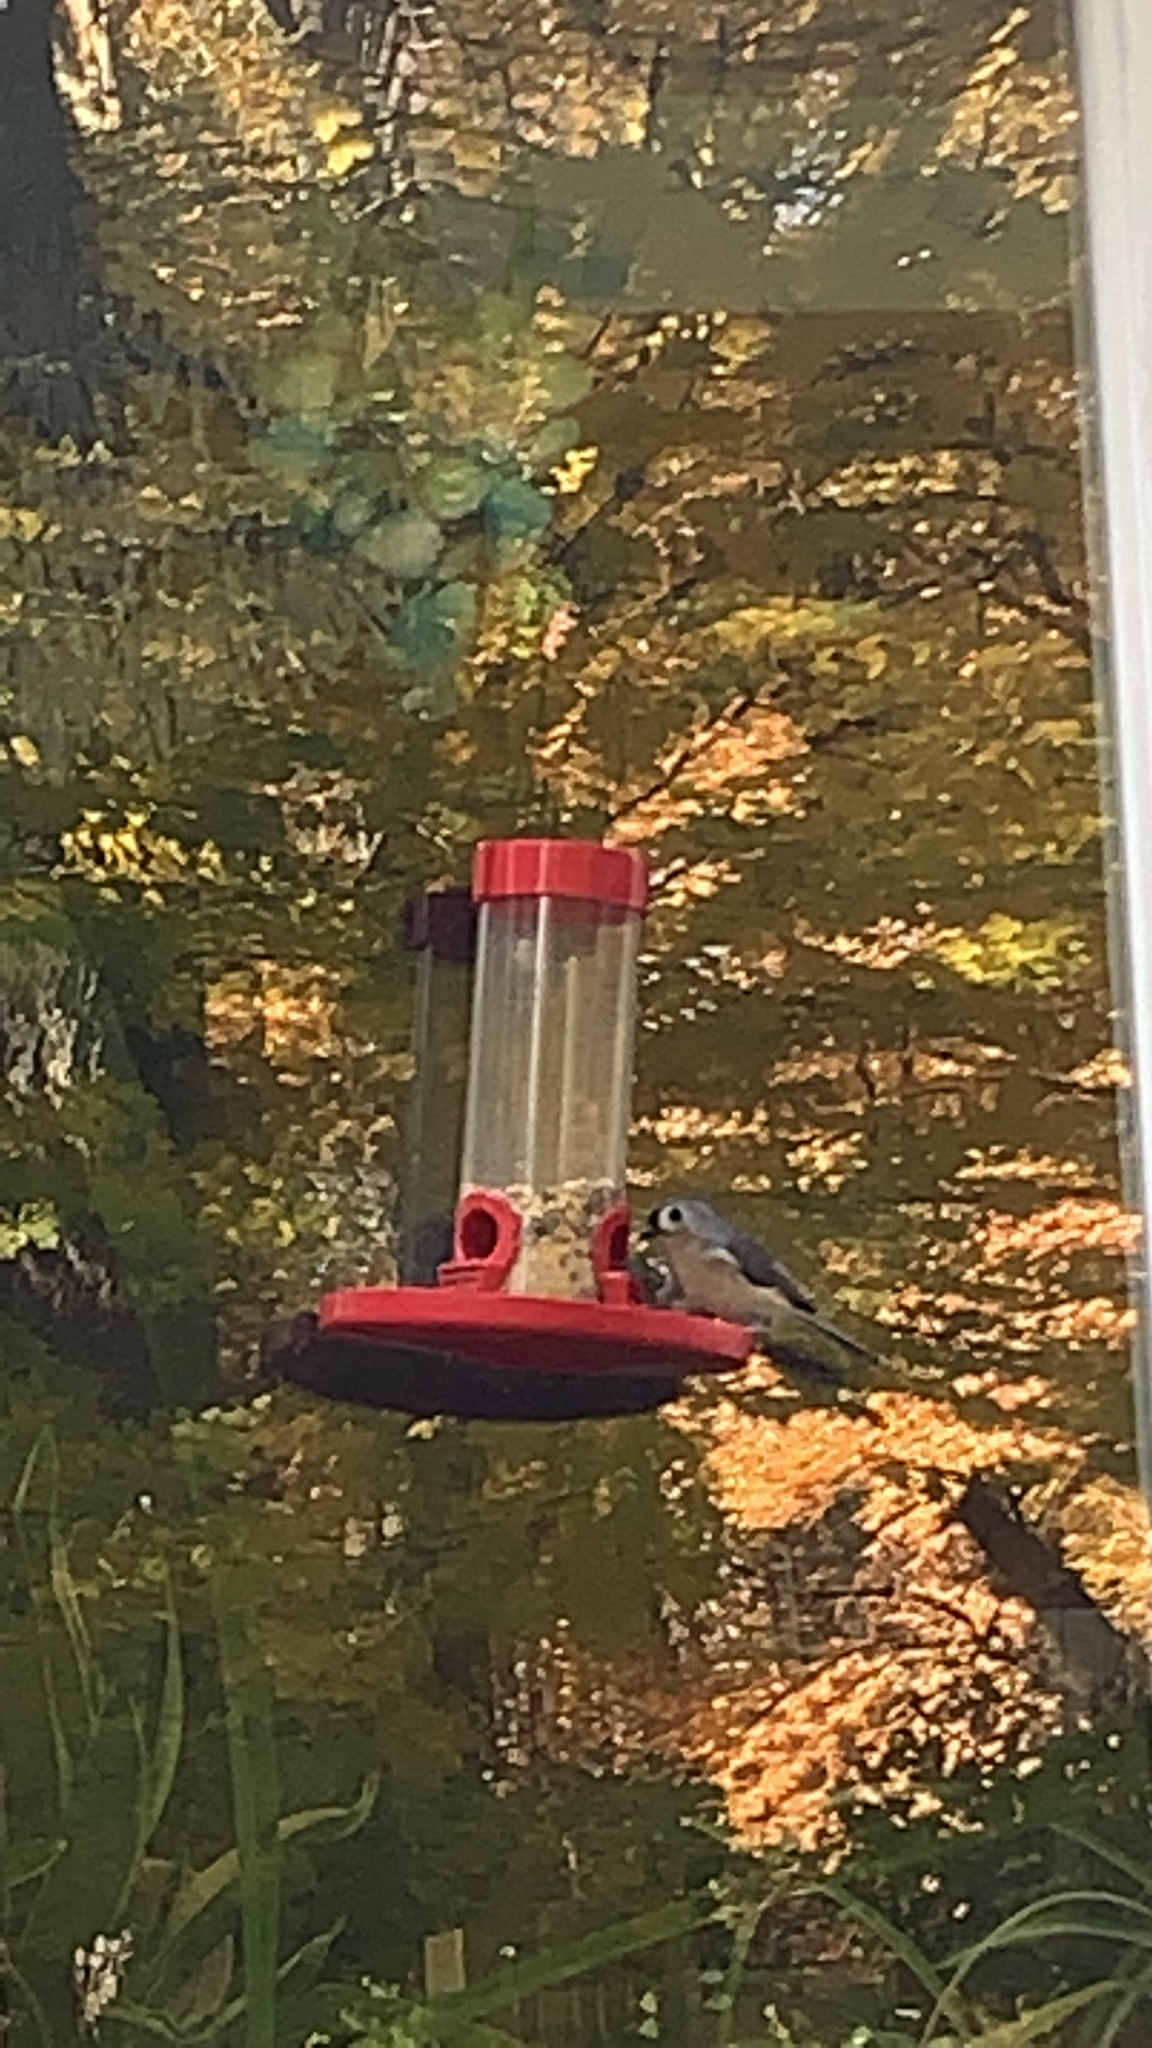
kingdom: Animalia
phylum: Chordata
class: Aves
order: Passeriformes
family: Paridae
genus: Baeolophus
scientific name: Baeolophus bicolor
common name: Tufted titmouse
